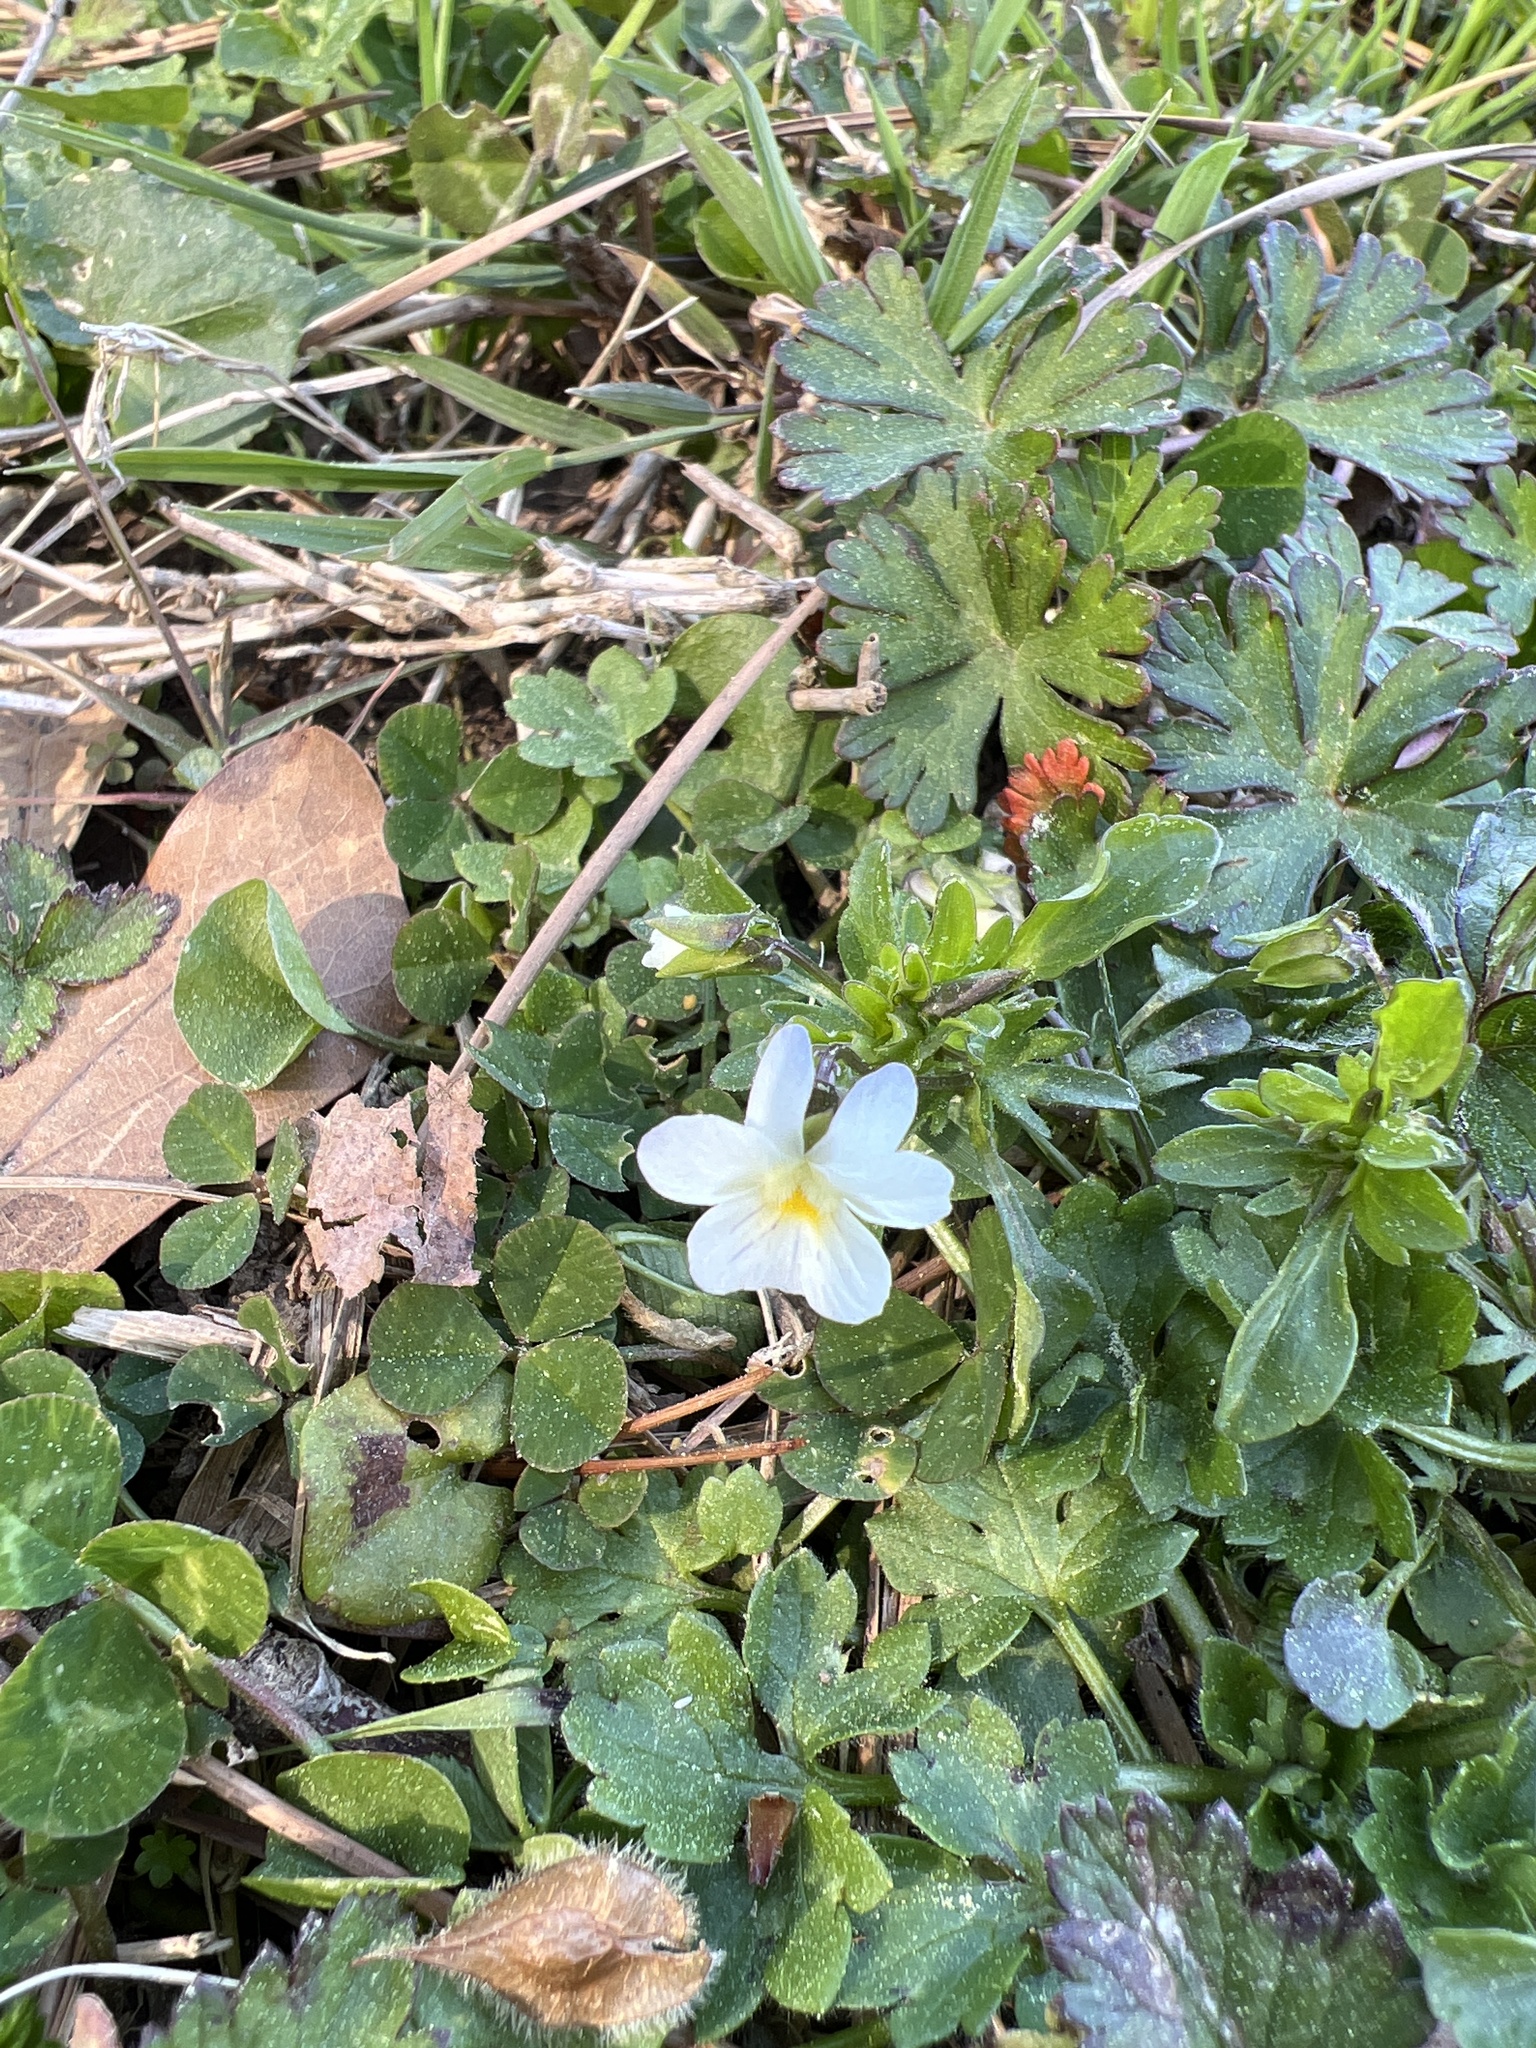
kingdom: Plantae
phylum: Tracheophyta
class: Magnoliopsida
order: Malpighiales
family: Violaceae
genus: Viola
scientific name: Viola rafinesquei
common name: American field pansy
